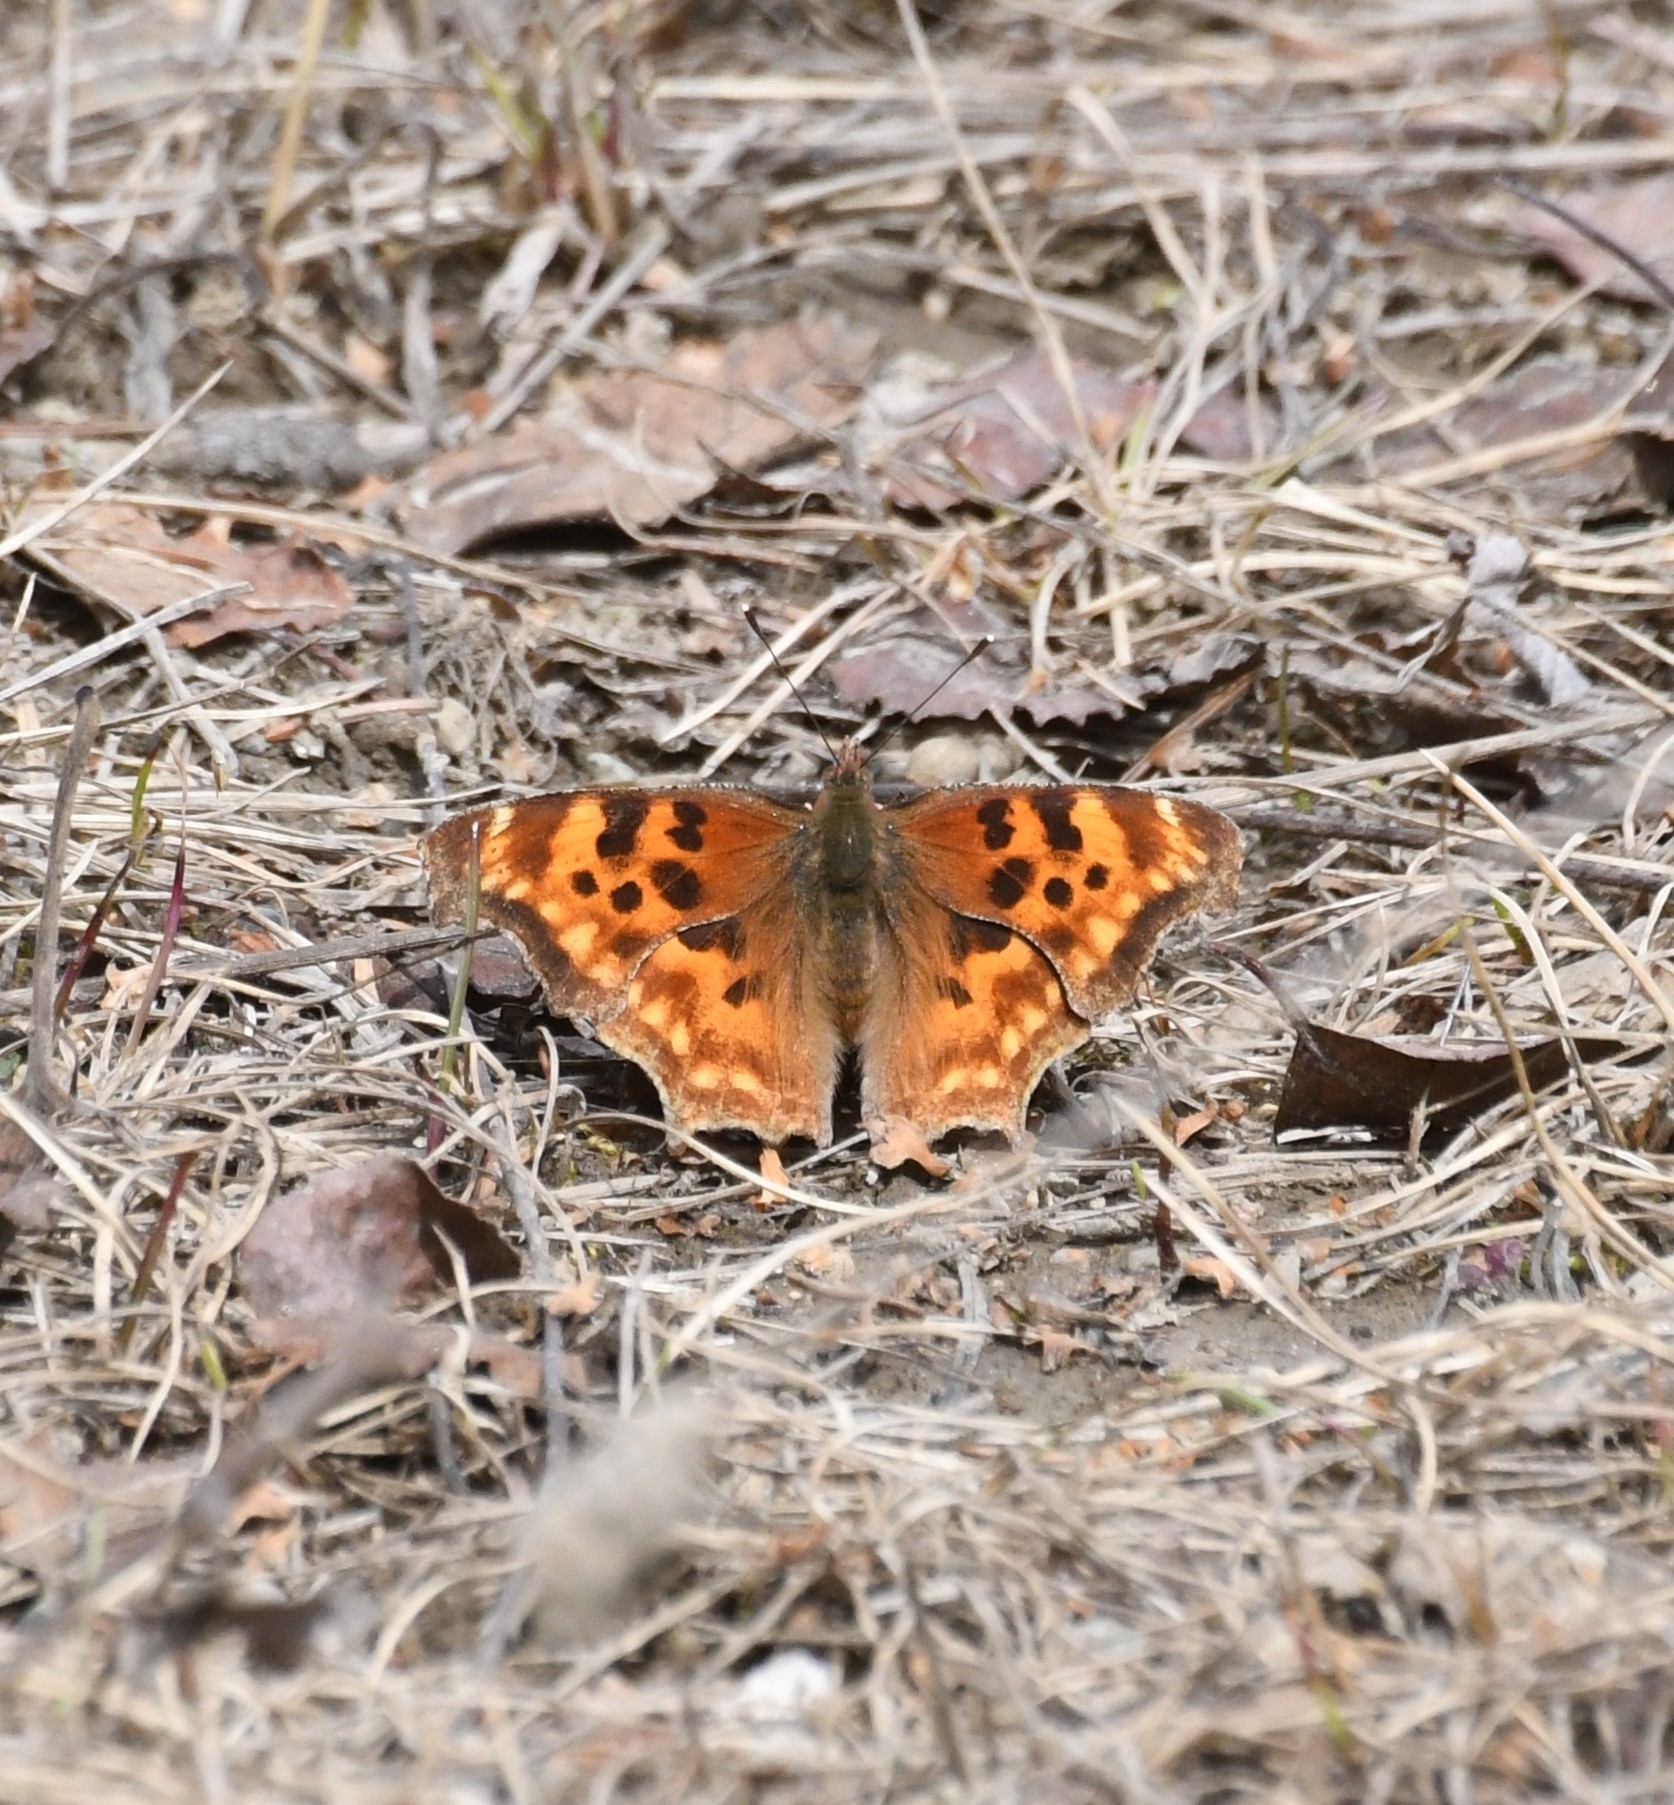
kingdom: Animalia
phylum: Arthropoda
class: Insecta
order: Lepidoptera
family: Nymphalidae
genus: Polygonia
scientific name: Polygonia satyrus
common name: Satyr angle wing
